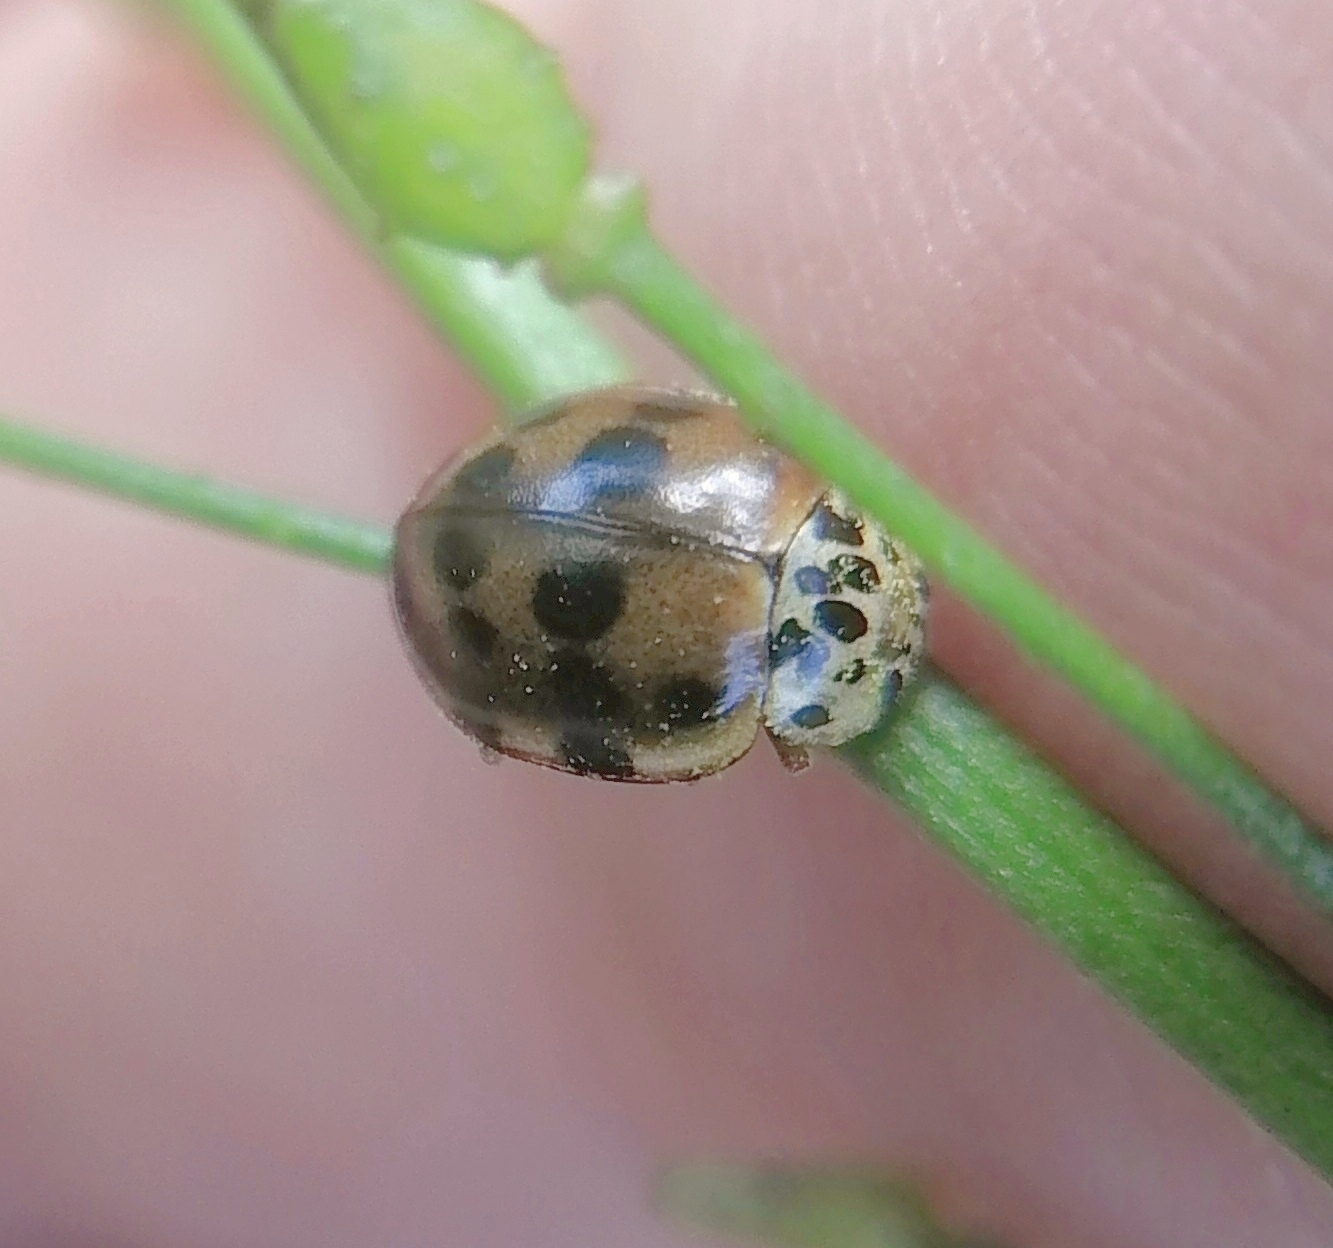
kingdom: Animalia
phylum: Arthropoda
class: Insecta
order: Coleoptera
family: Coccinellidae
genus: Harmonia
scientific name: Harmonia quadripunctata
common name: Cream-streaked ladybird
